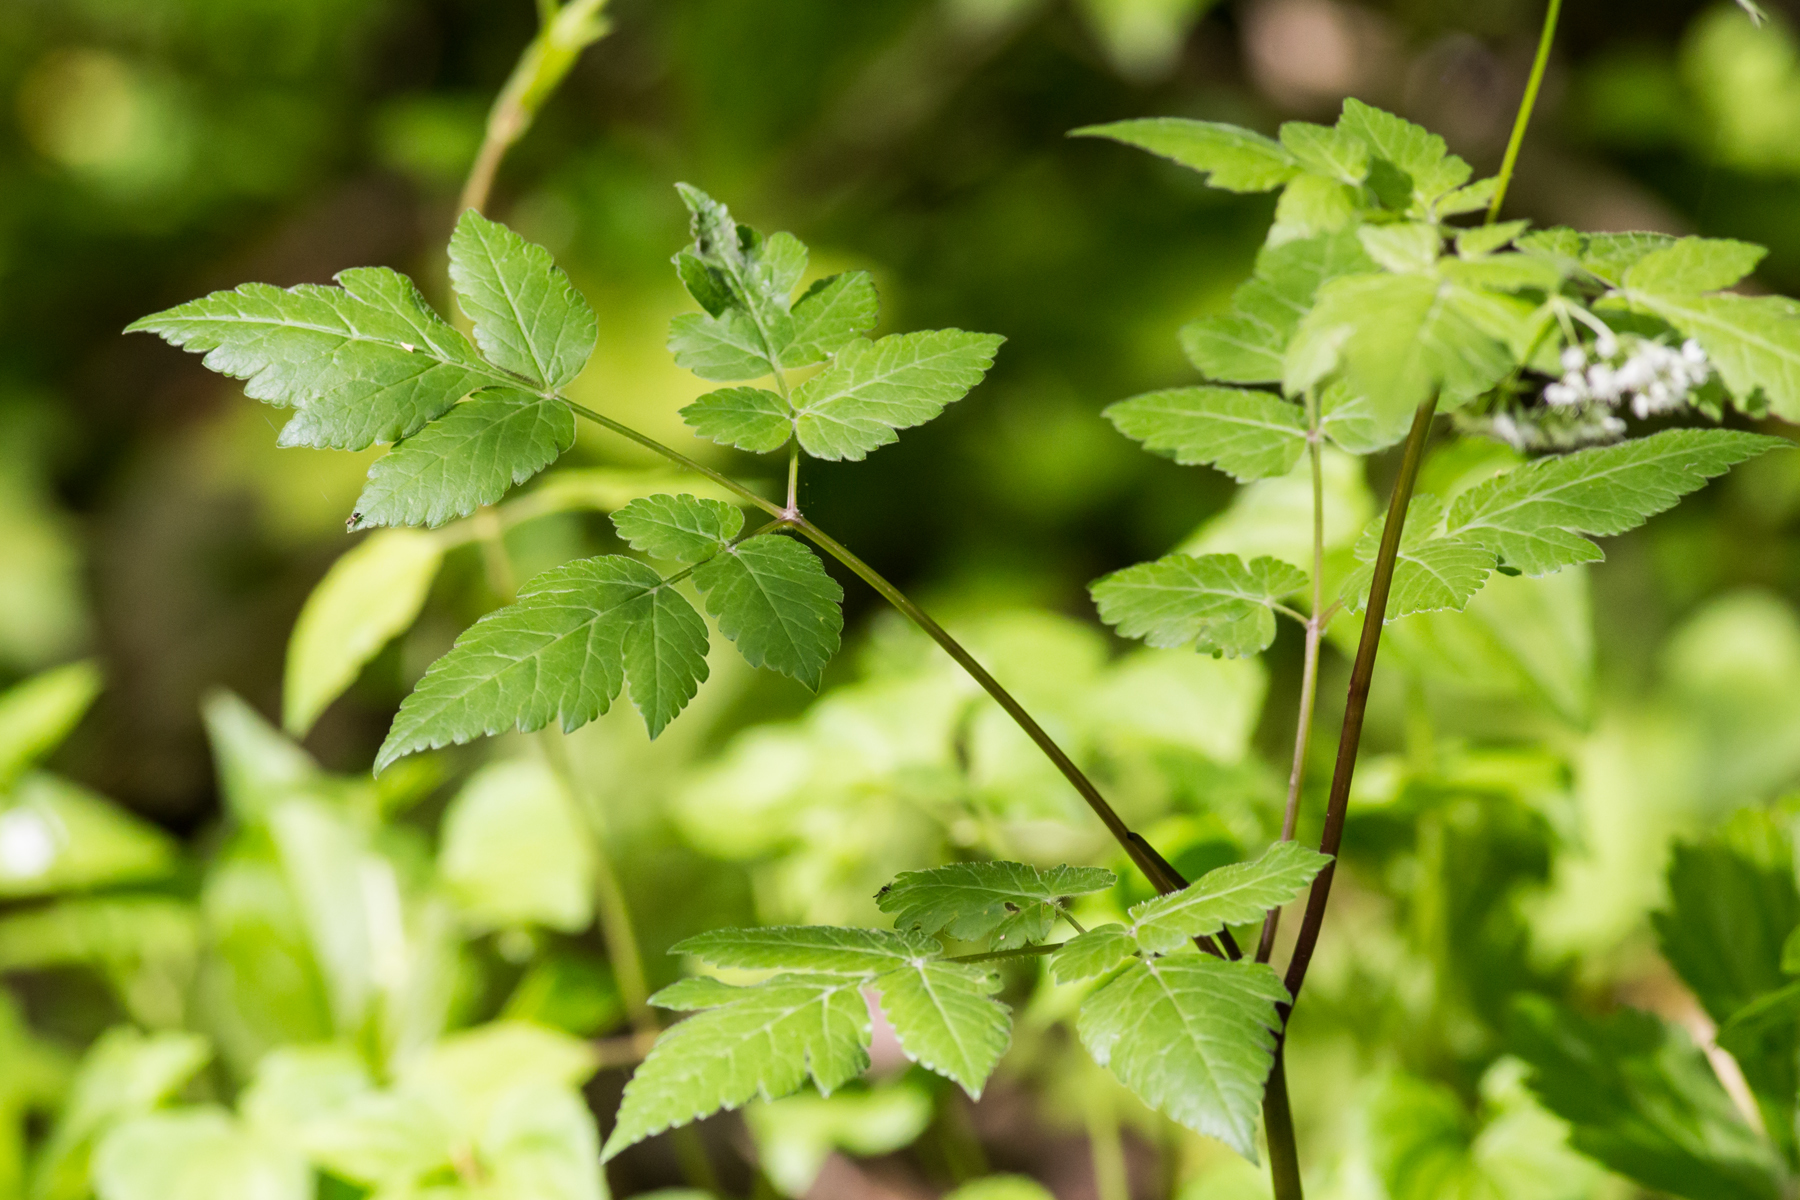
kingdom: Plantae
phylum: Tracheophyta
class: Magnoliopsida
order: Apiales
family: Apiaceae
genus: Osmorhiza
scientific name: Osmorhiza longistylis
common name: Smooth sweet cicely
